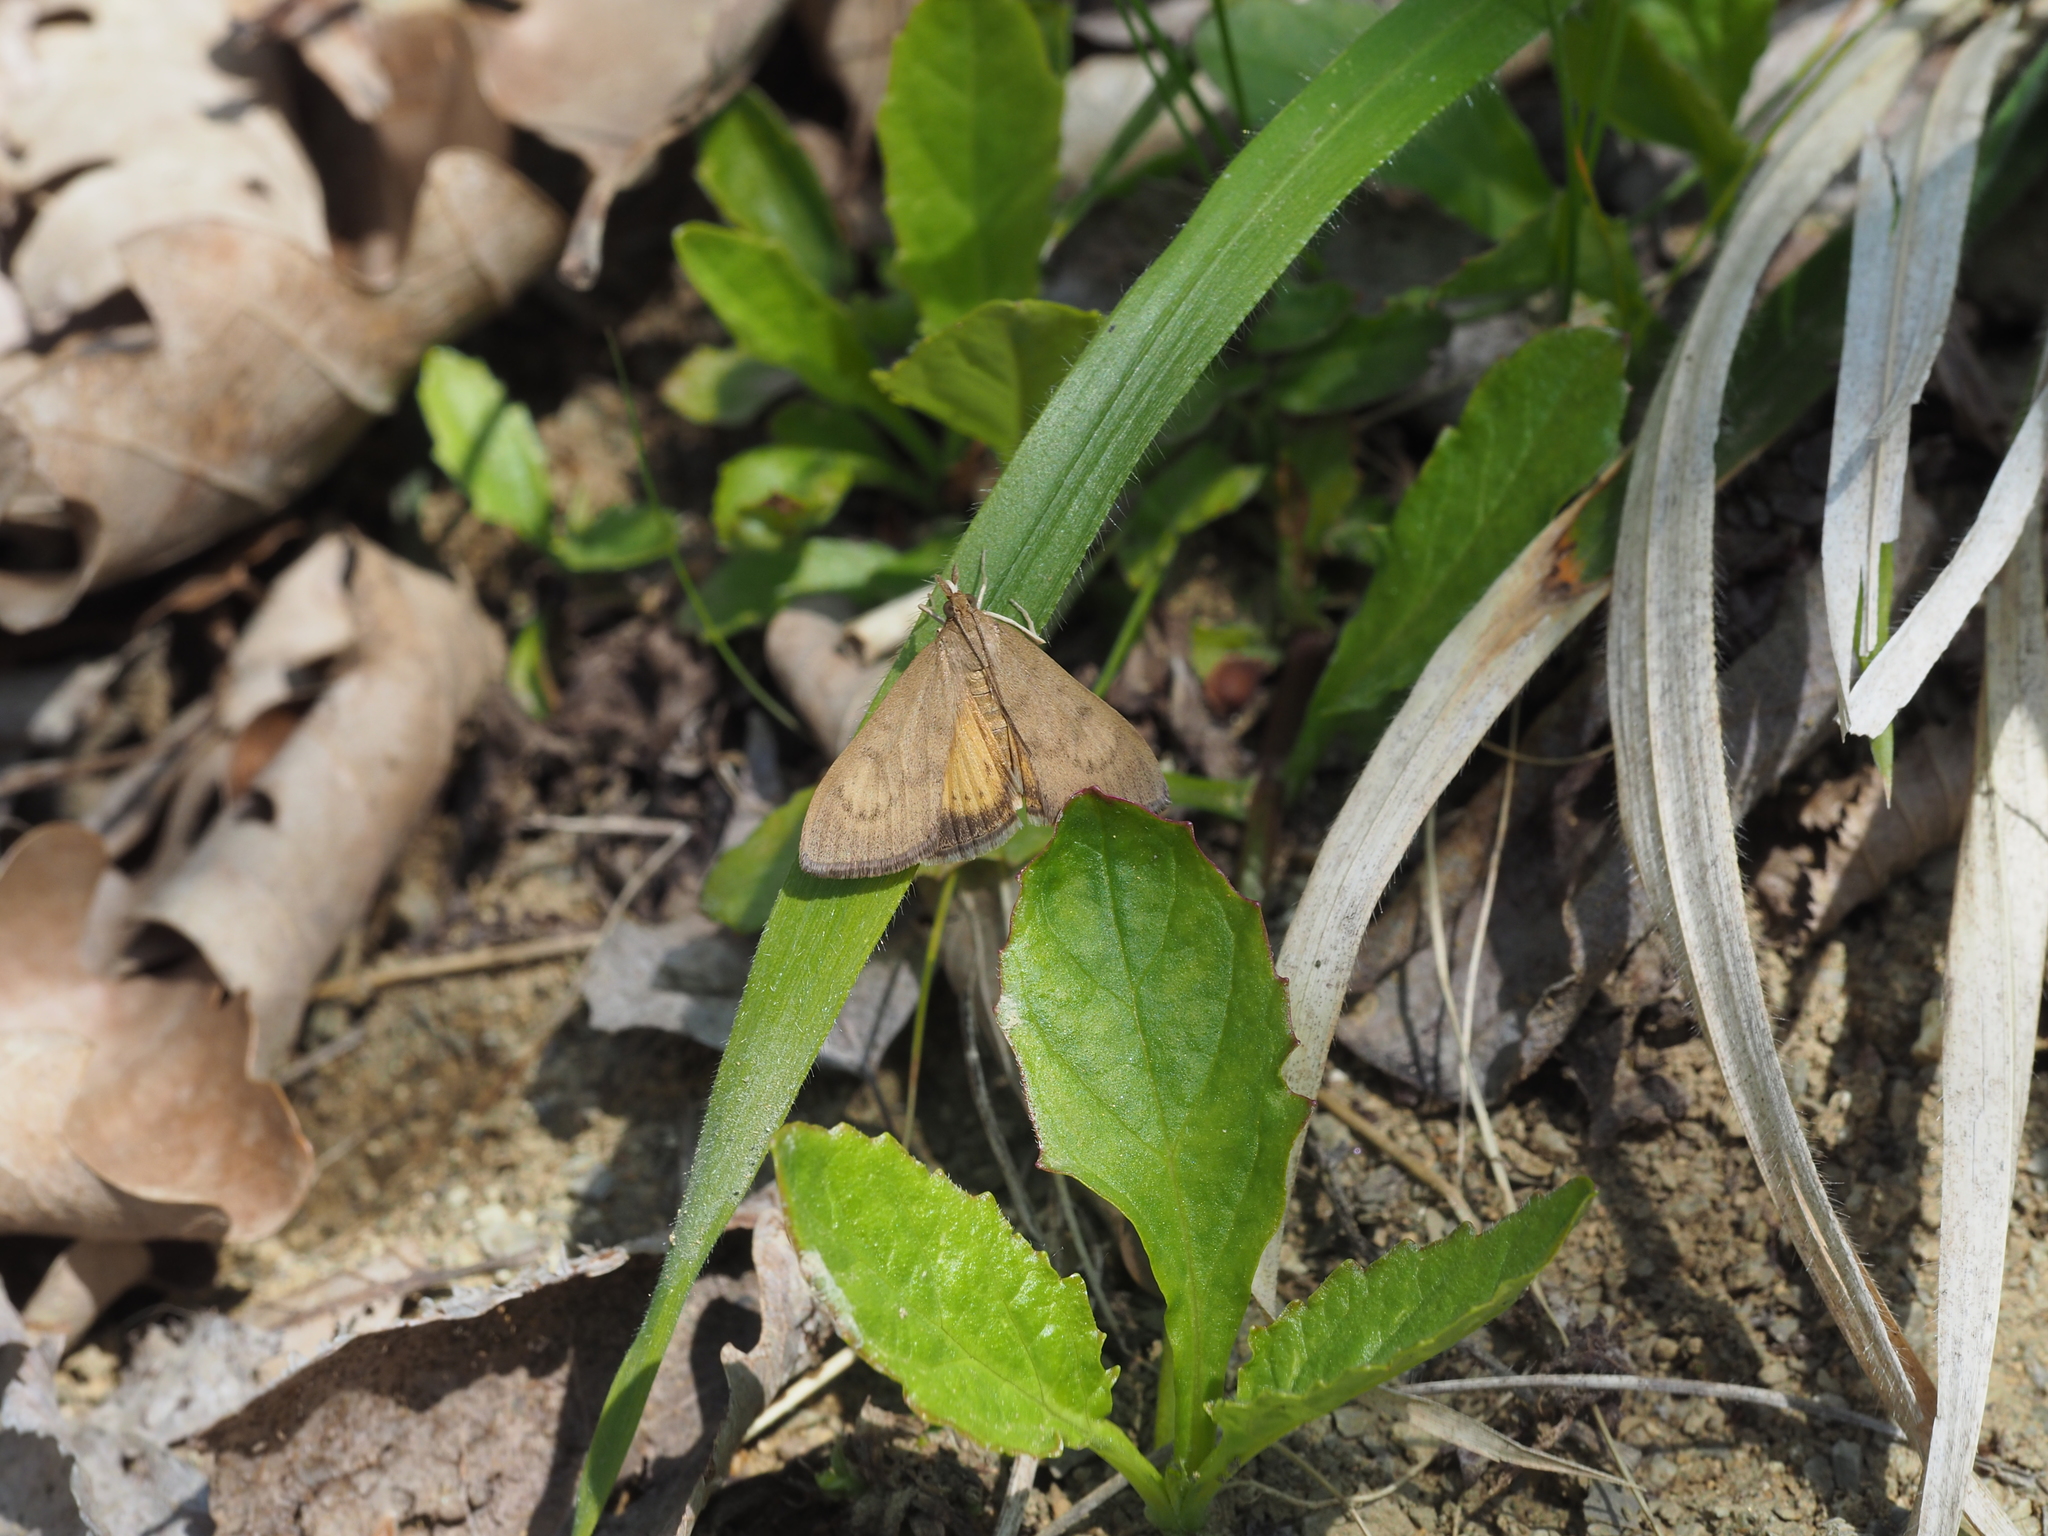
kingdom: Animalia
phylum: Arthropoda
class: Insecta
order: Lepidoptera
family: Crambidae
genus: Uresiphita
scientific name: Uresiphita gilvata
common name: Yellow-underwing pearl
